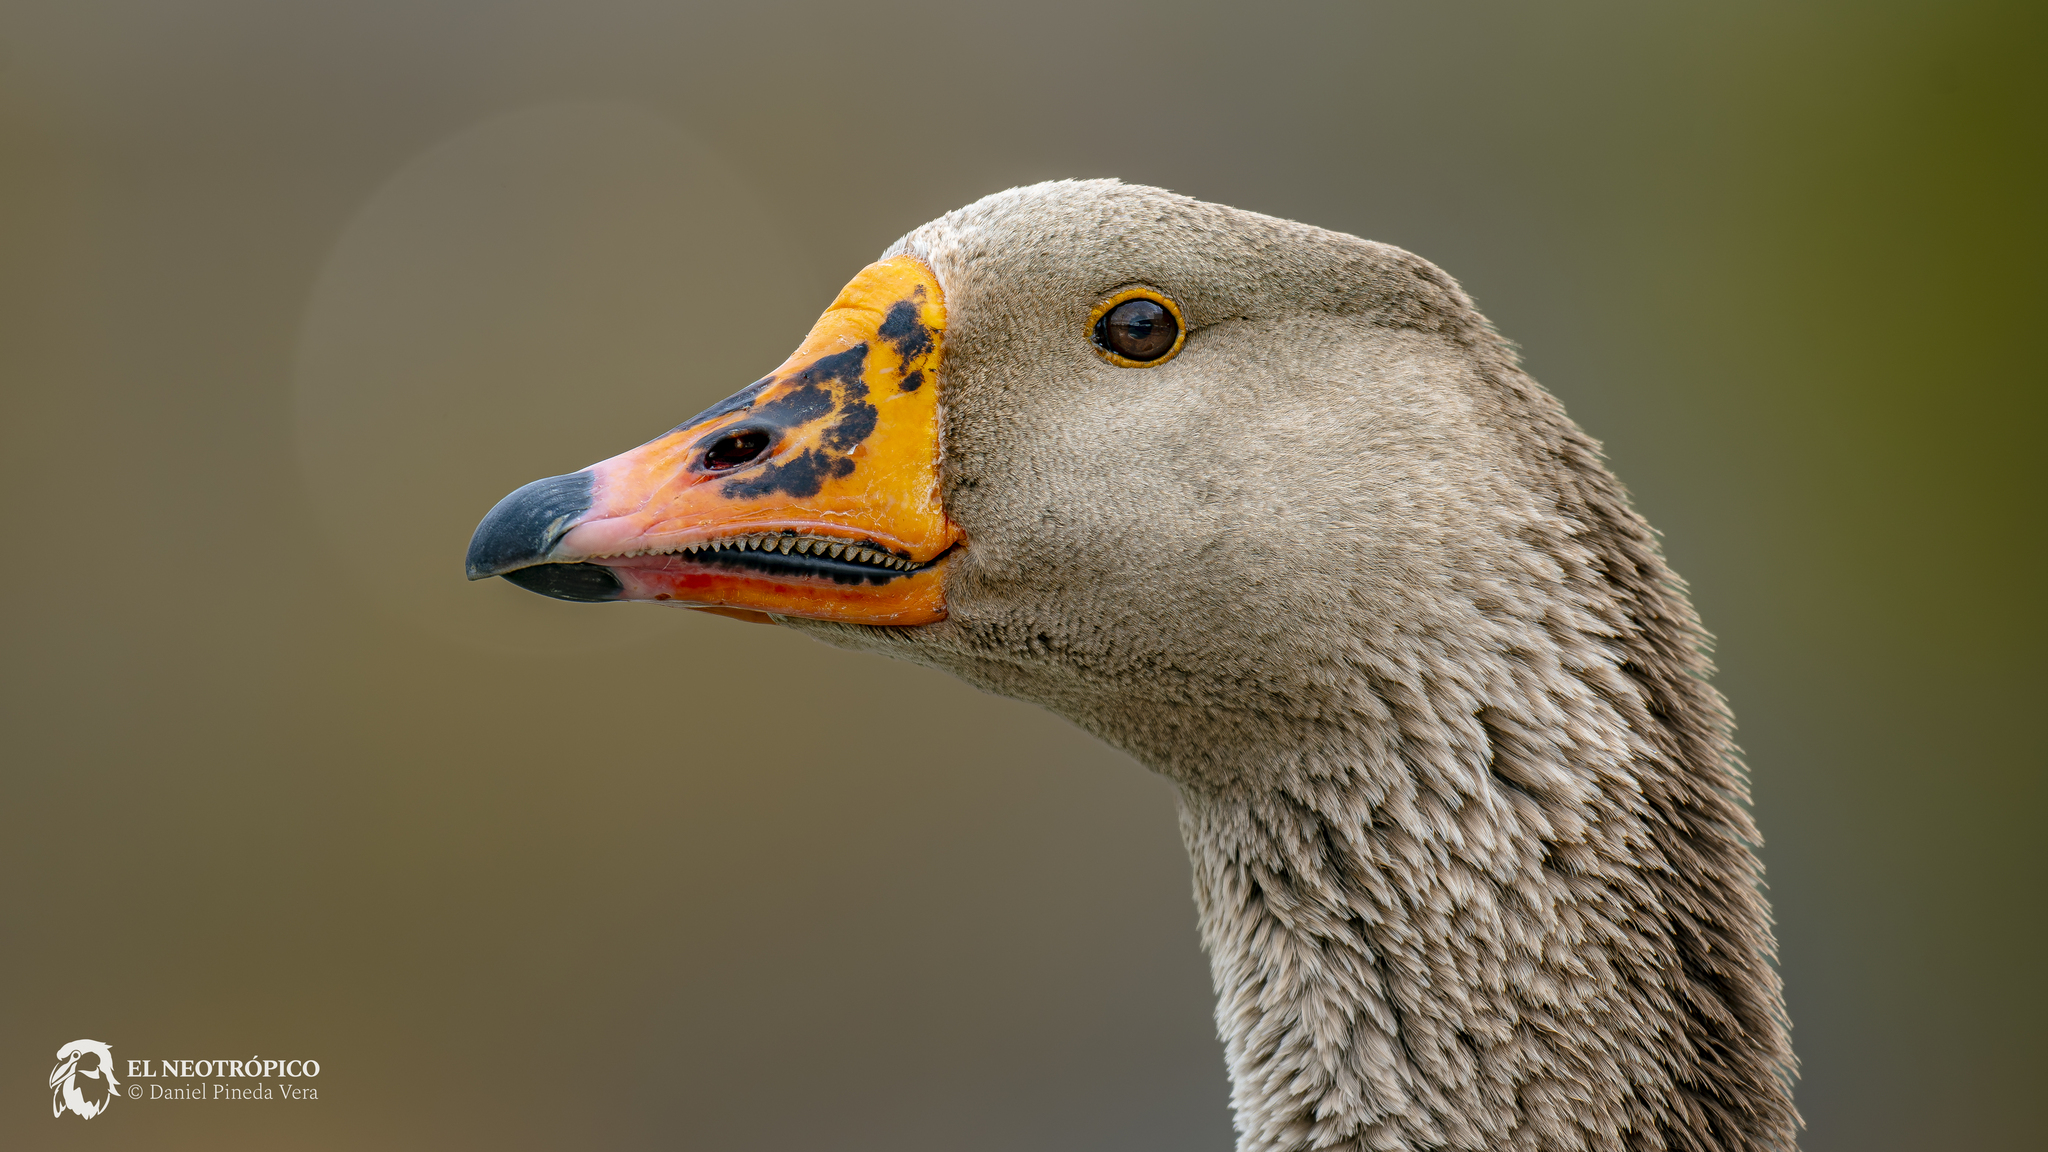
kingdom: Animalia
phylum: Chordata
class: Aves
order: Anseriformes
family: Anatidae
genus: Anser
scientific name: Anser
